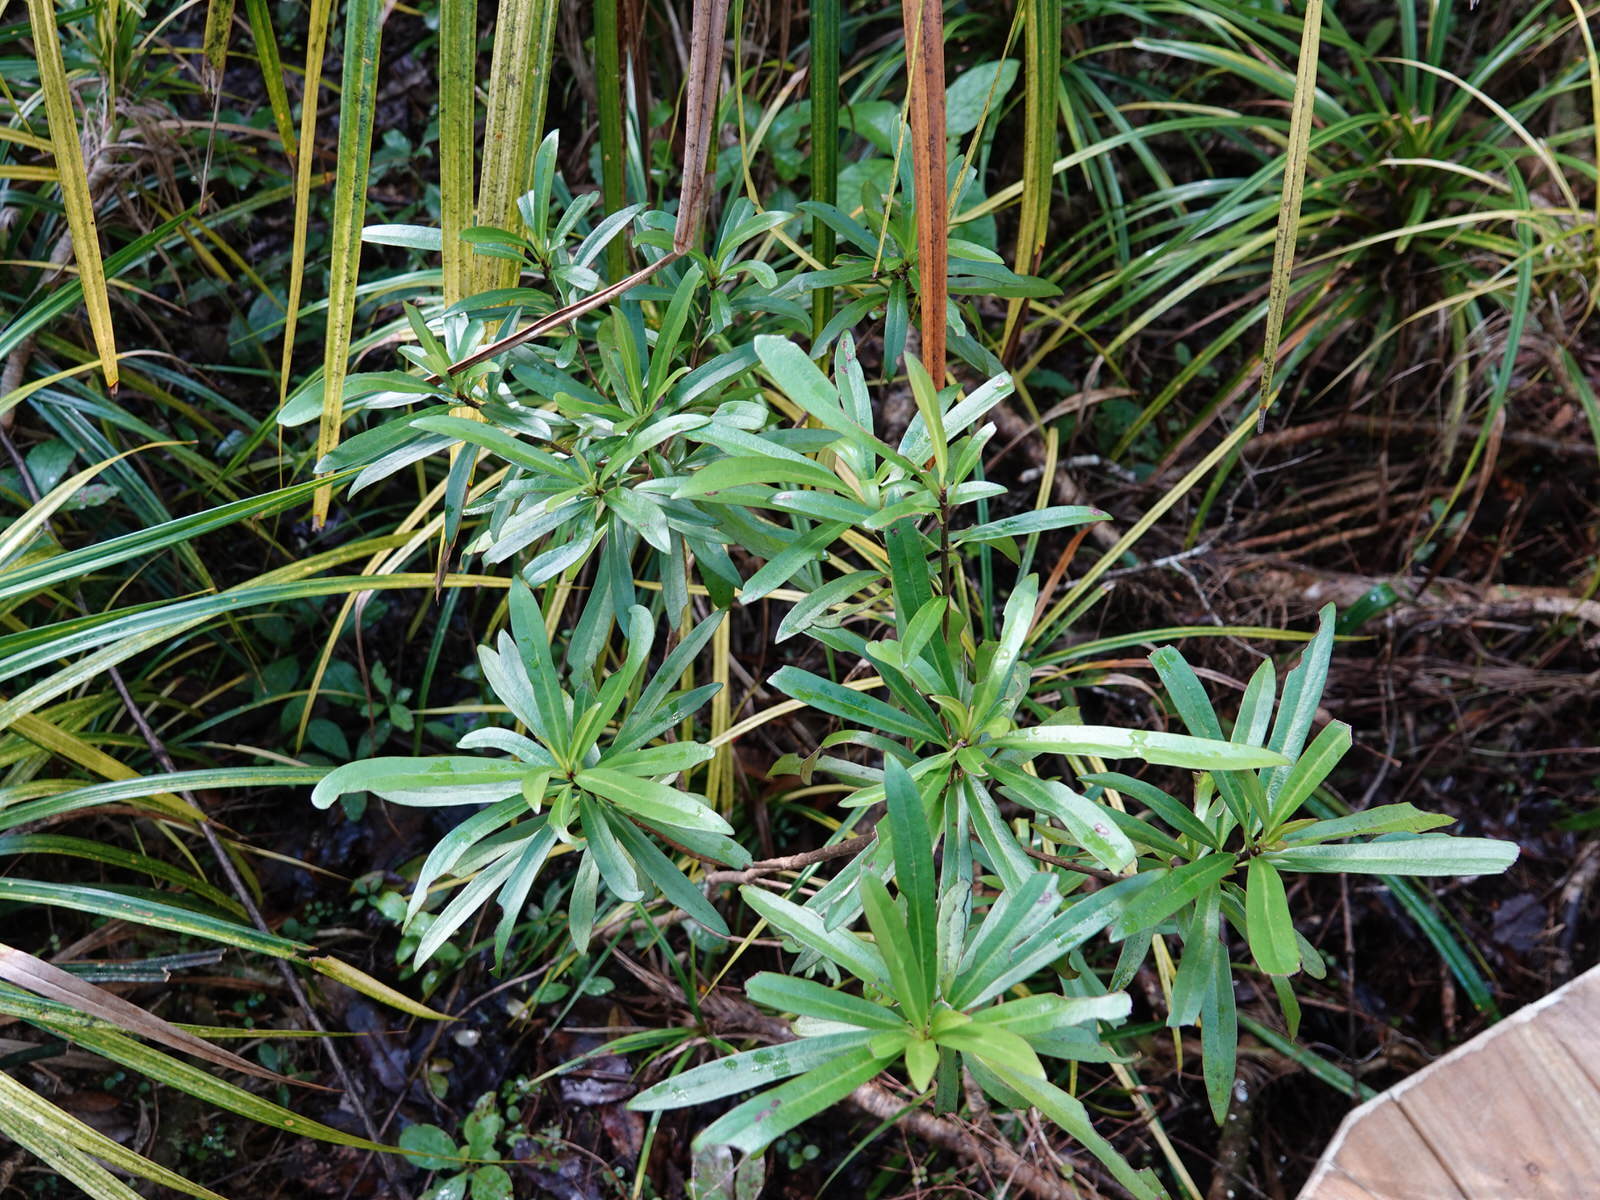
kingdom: Plantae
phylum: Tracheophyta
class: Magnoliopsida
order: Asterales
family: Asteraceae
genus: Brachyglottis
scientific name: Brachyglottis kirkii
